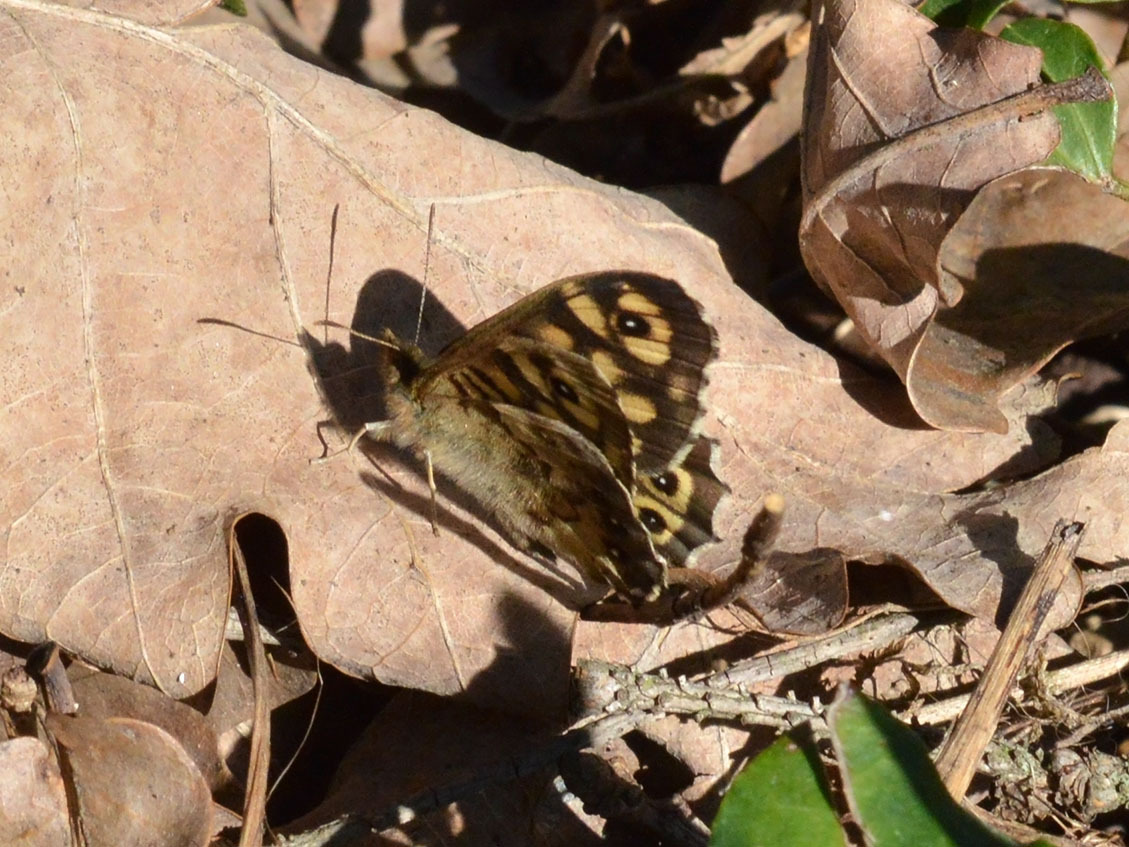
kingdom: Animalia
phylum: Arthropoda
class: Insecta
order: Lepidoptera
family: Nymphalidae
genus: Pararge
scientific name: Pararge aegeria
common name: Speckled wood
